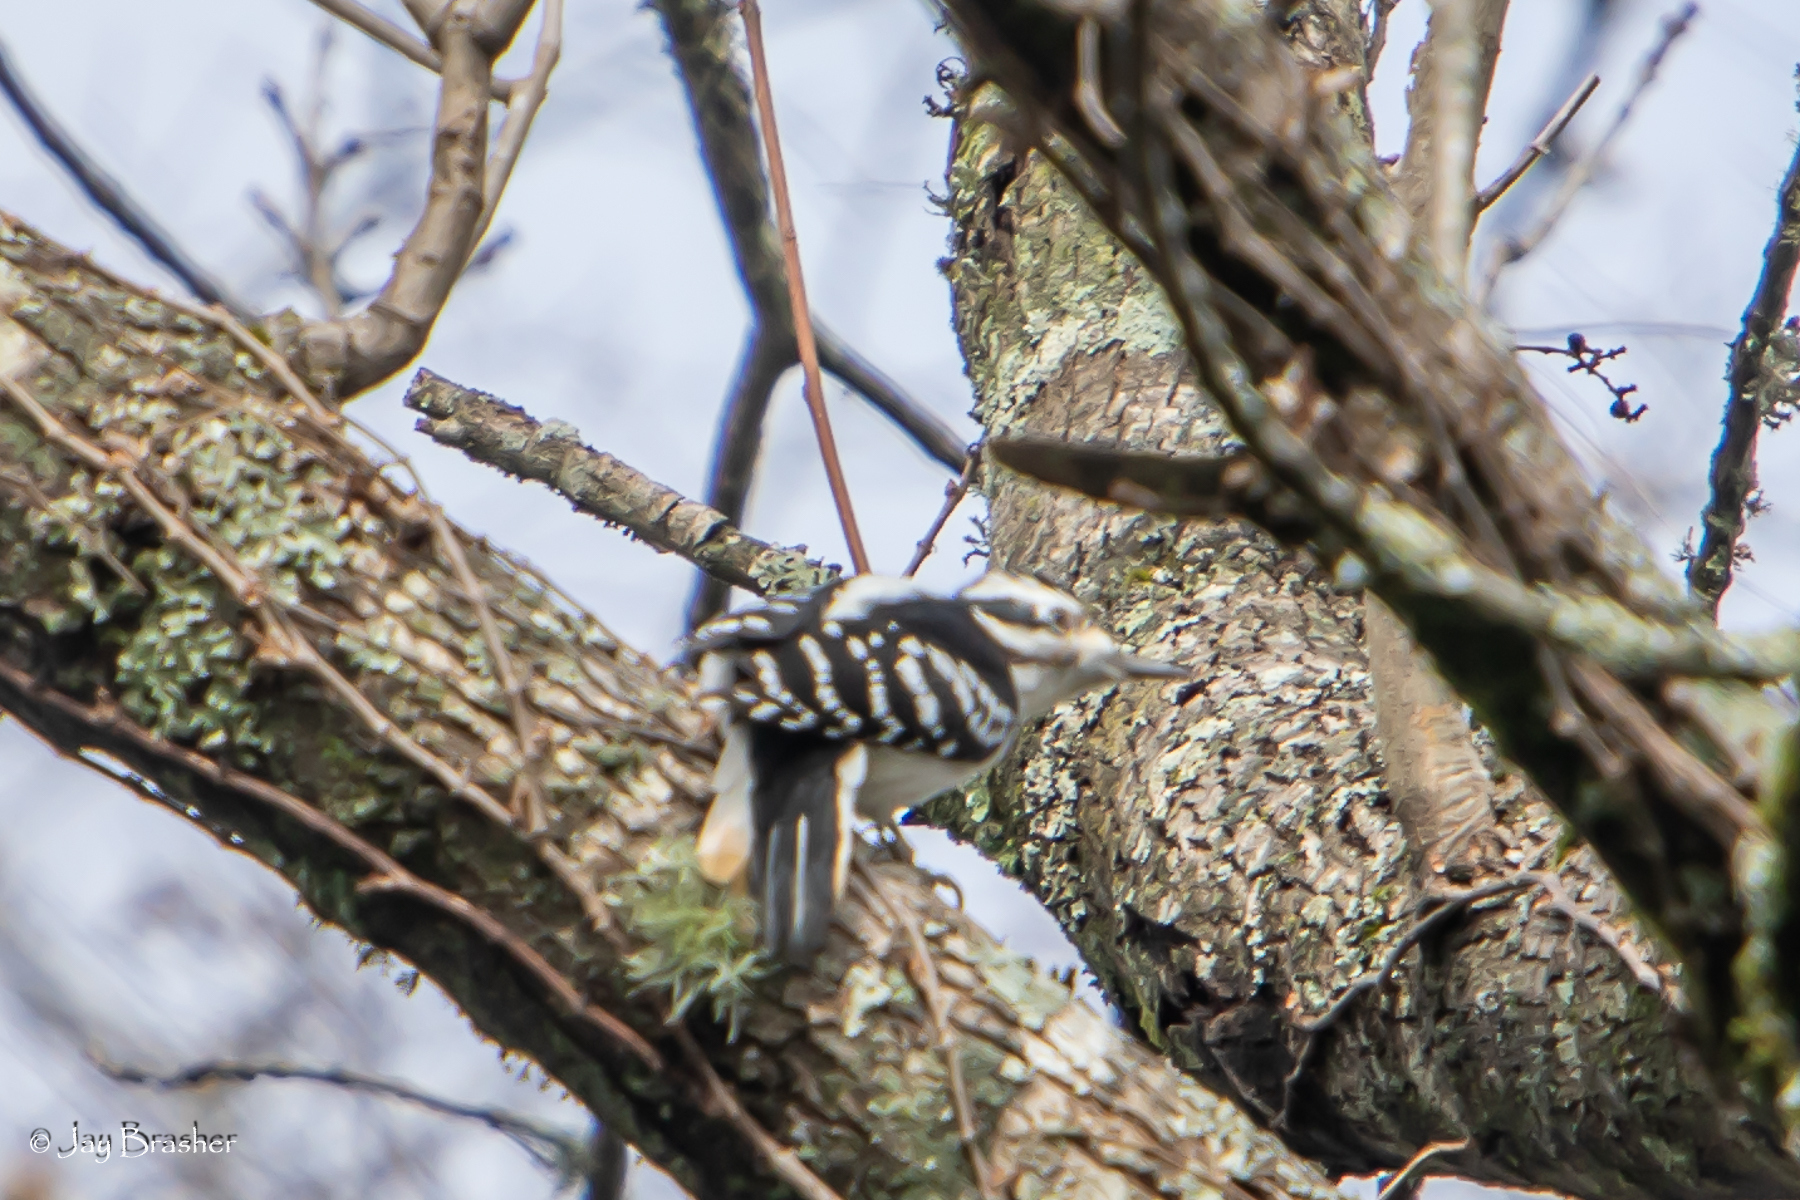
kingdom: Animalia
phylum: Chordata
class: Aves
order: Piciformes
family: Picidae
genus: Leuconotopicus
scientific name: Leuconotopicus villosus
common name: Hairy woodpecker
